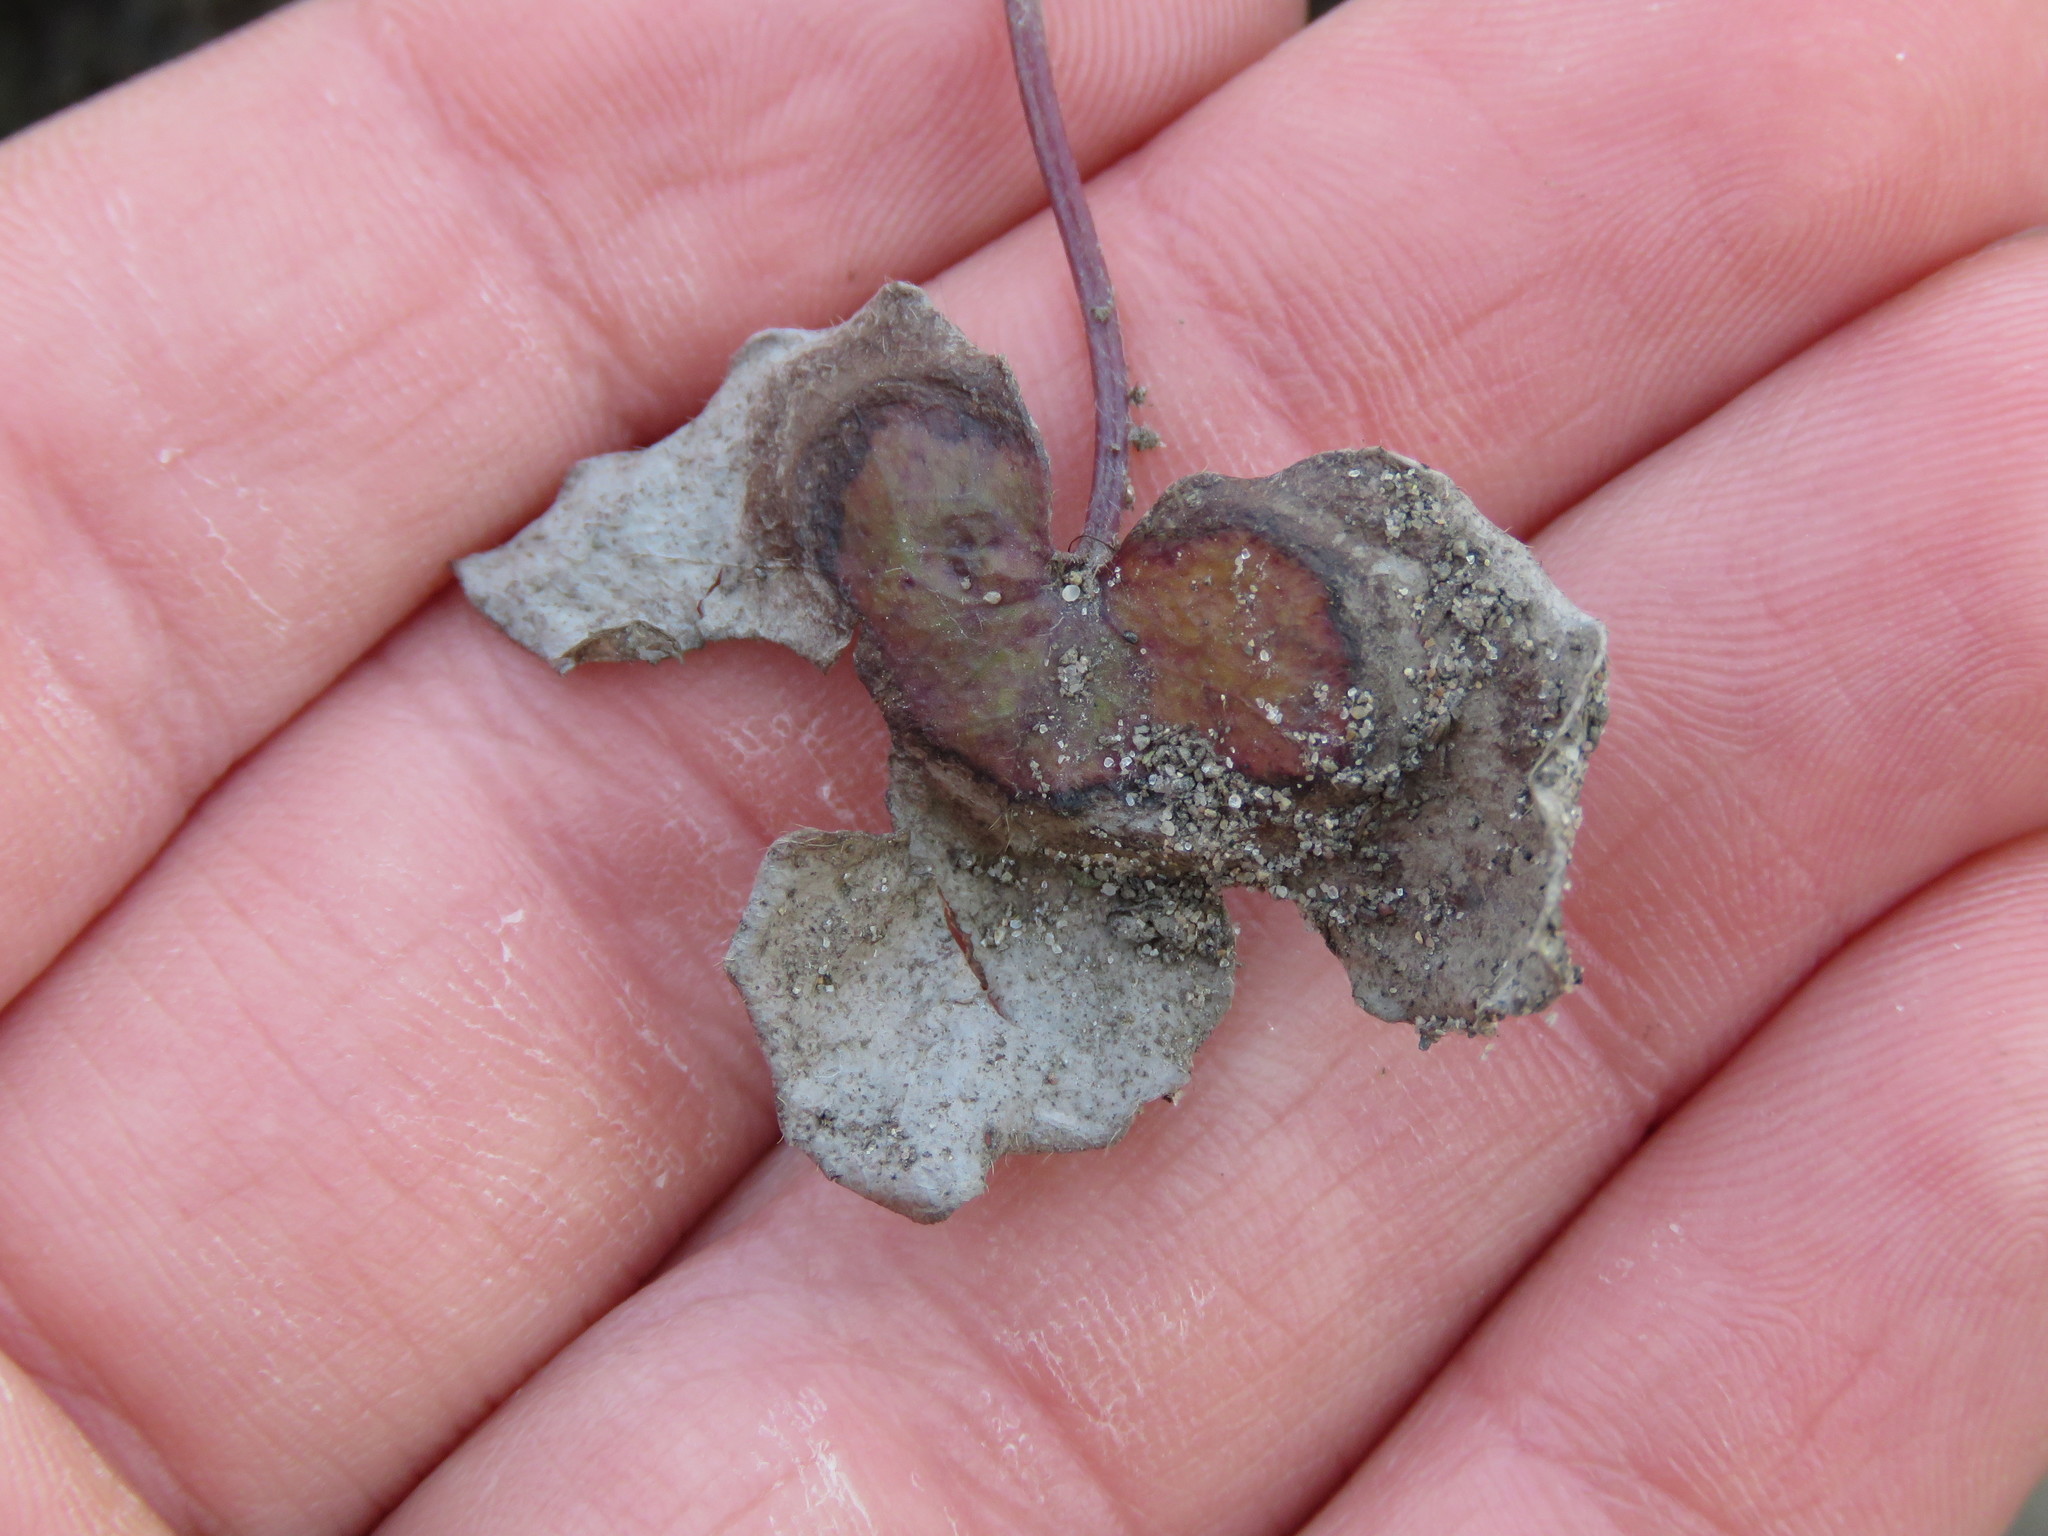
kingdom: Plantae
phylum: Tracheophyta
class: Magnoliopsida
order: Ranunculales
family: Ranunculaceae
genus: Hepatica
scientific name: Hepatica acutiloba
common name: Sharp-lobed hepatica
